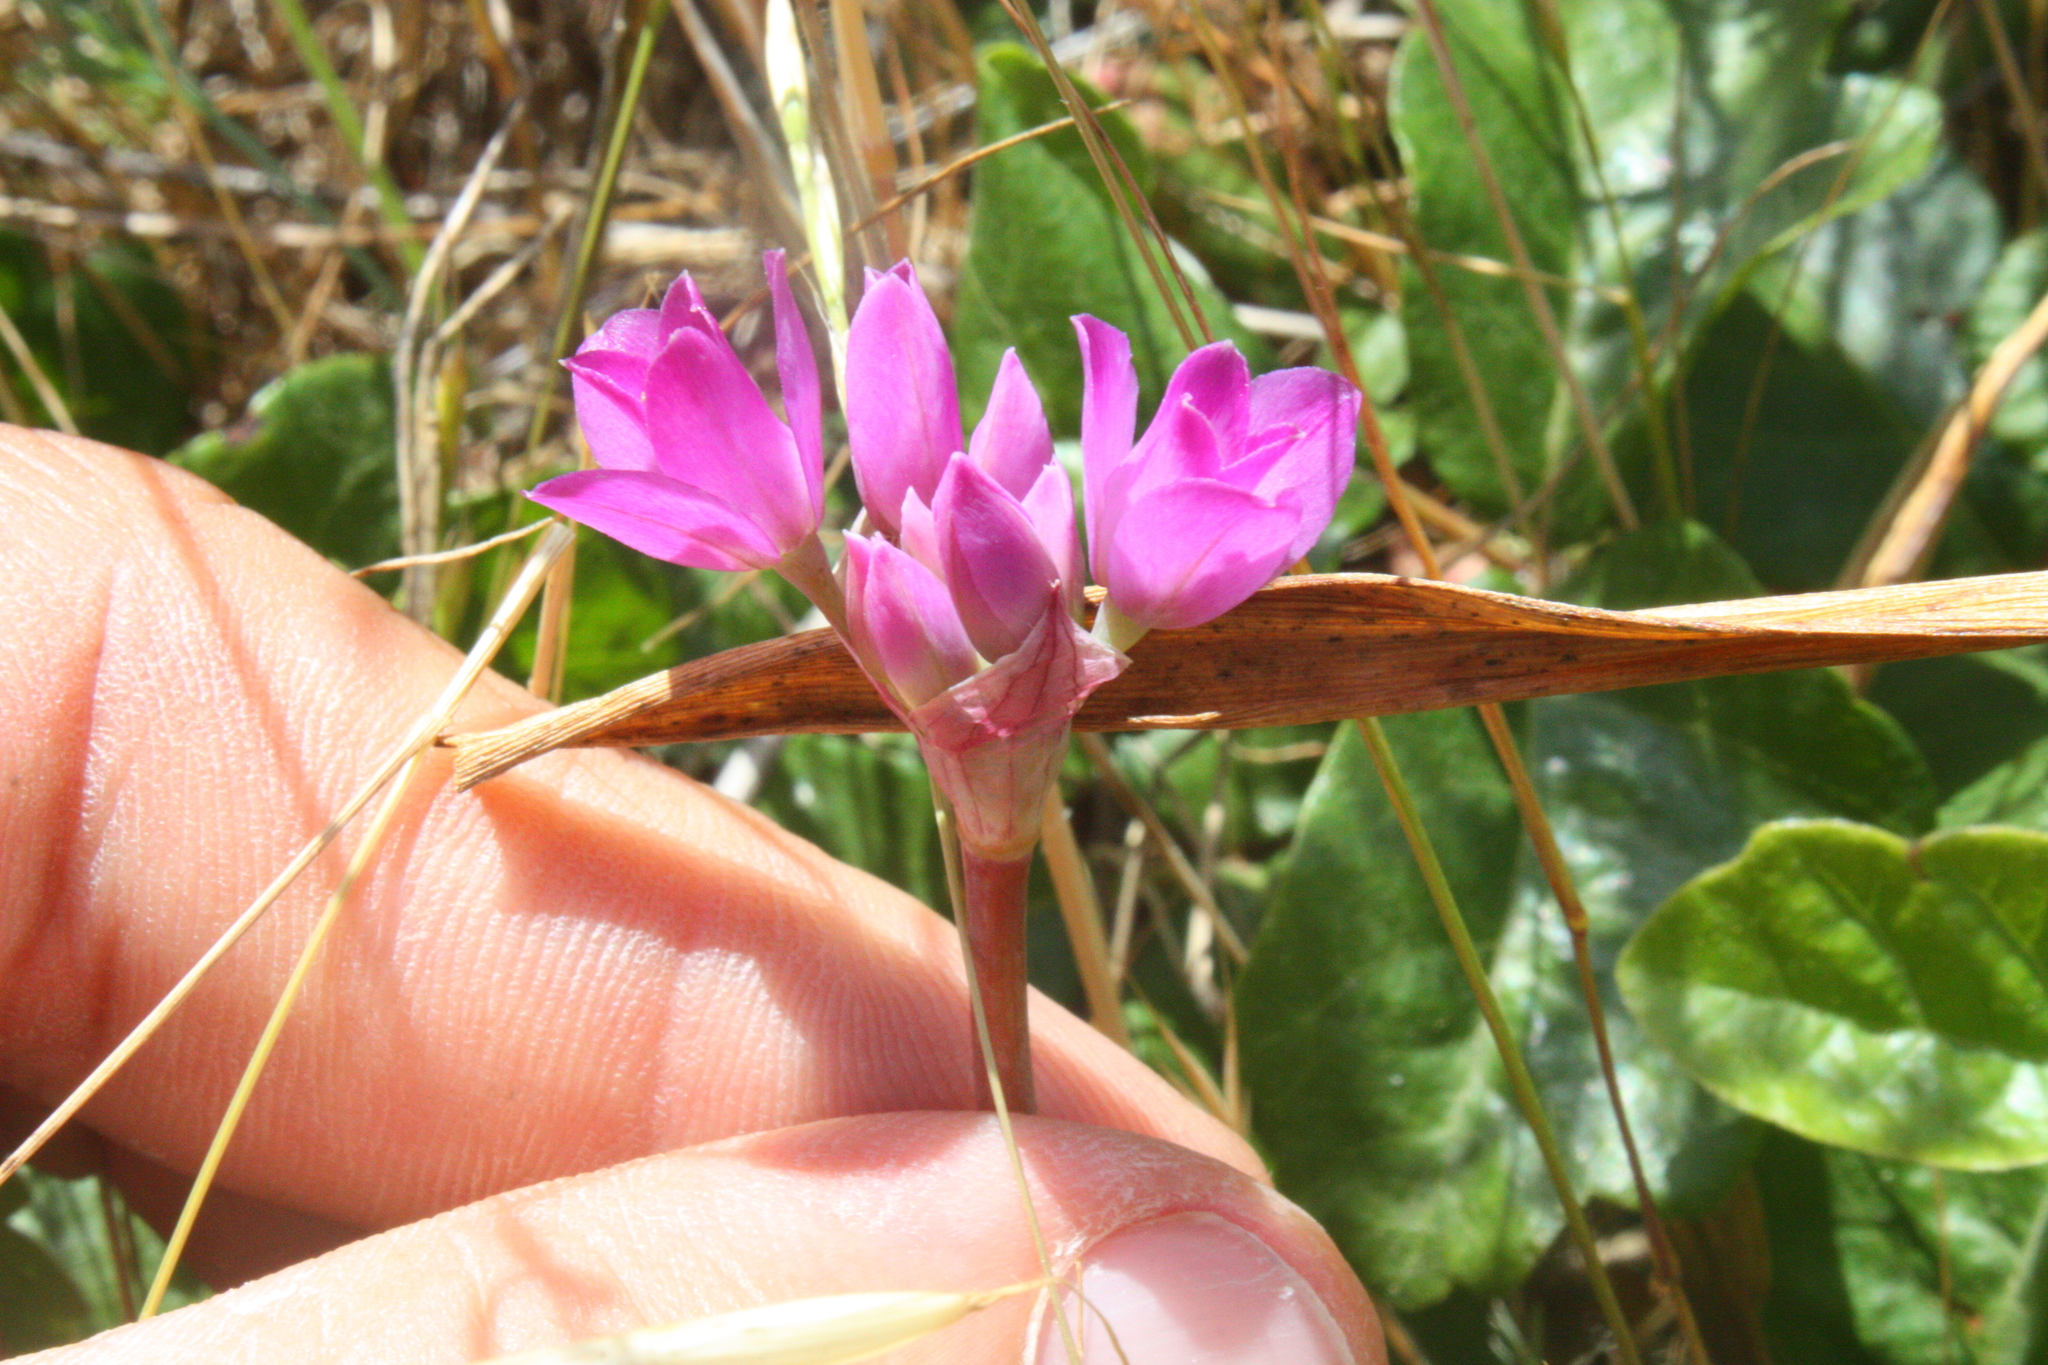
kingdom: Plantae
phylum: Tracheophyta
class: Liliopsida
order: Asparagales
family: Amaryllidaceae
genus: Allium
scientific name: Allium dichlamydeum
